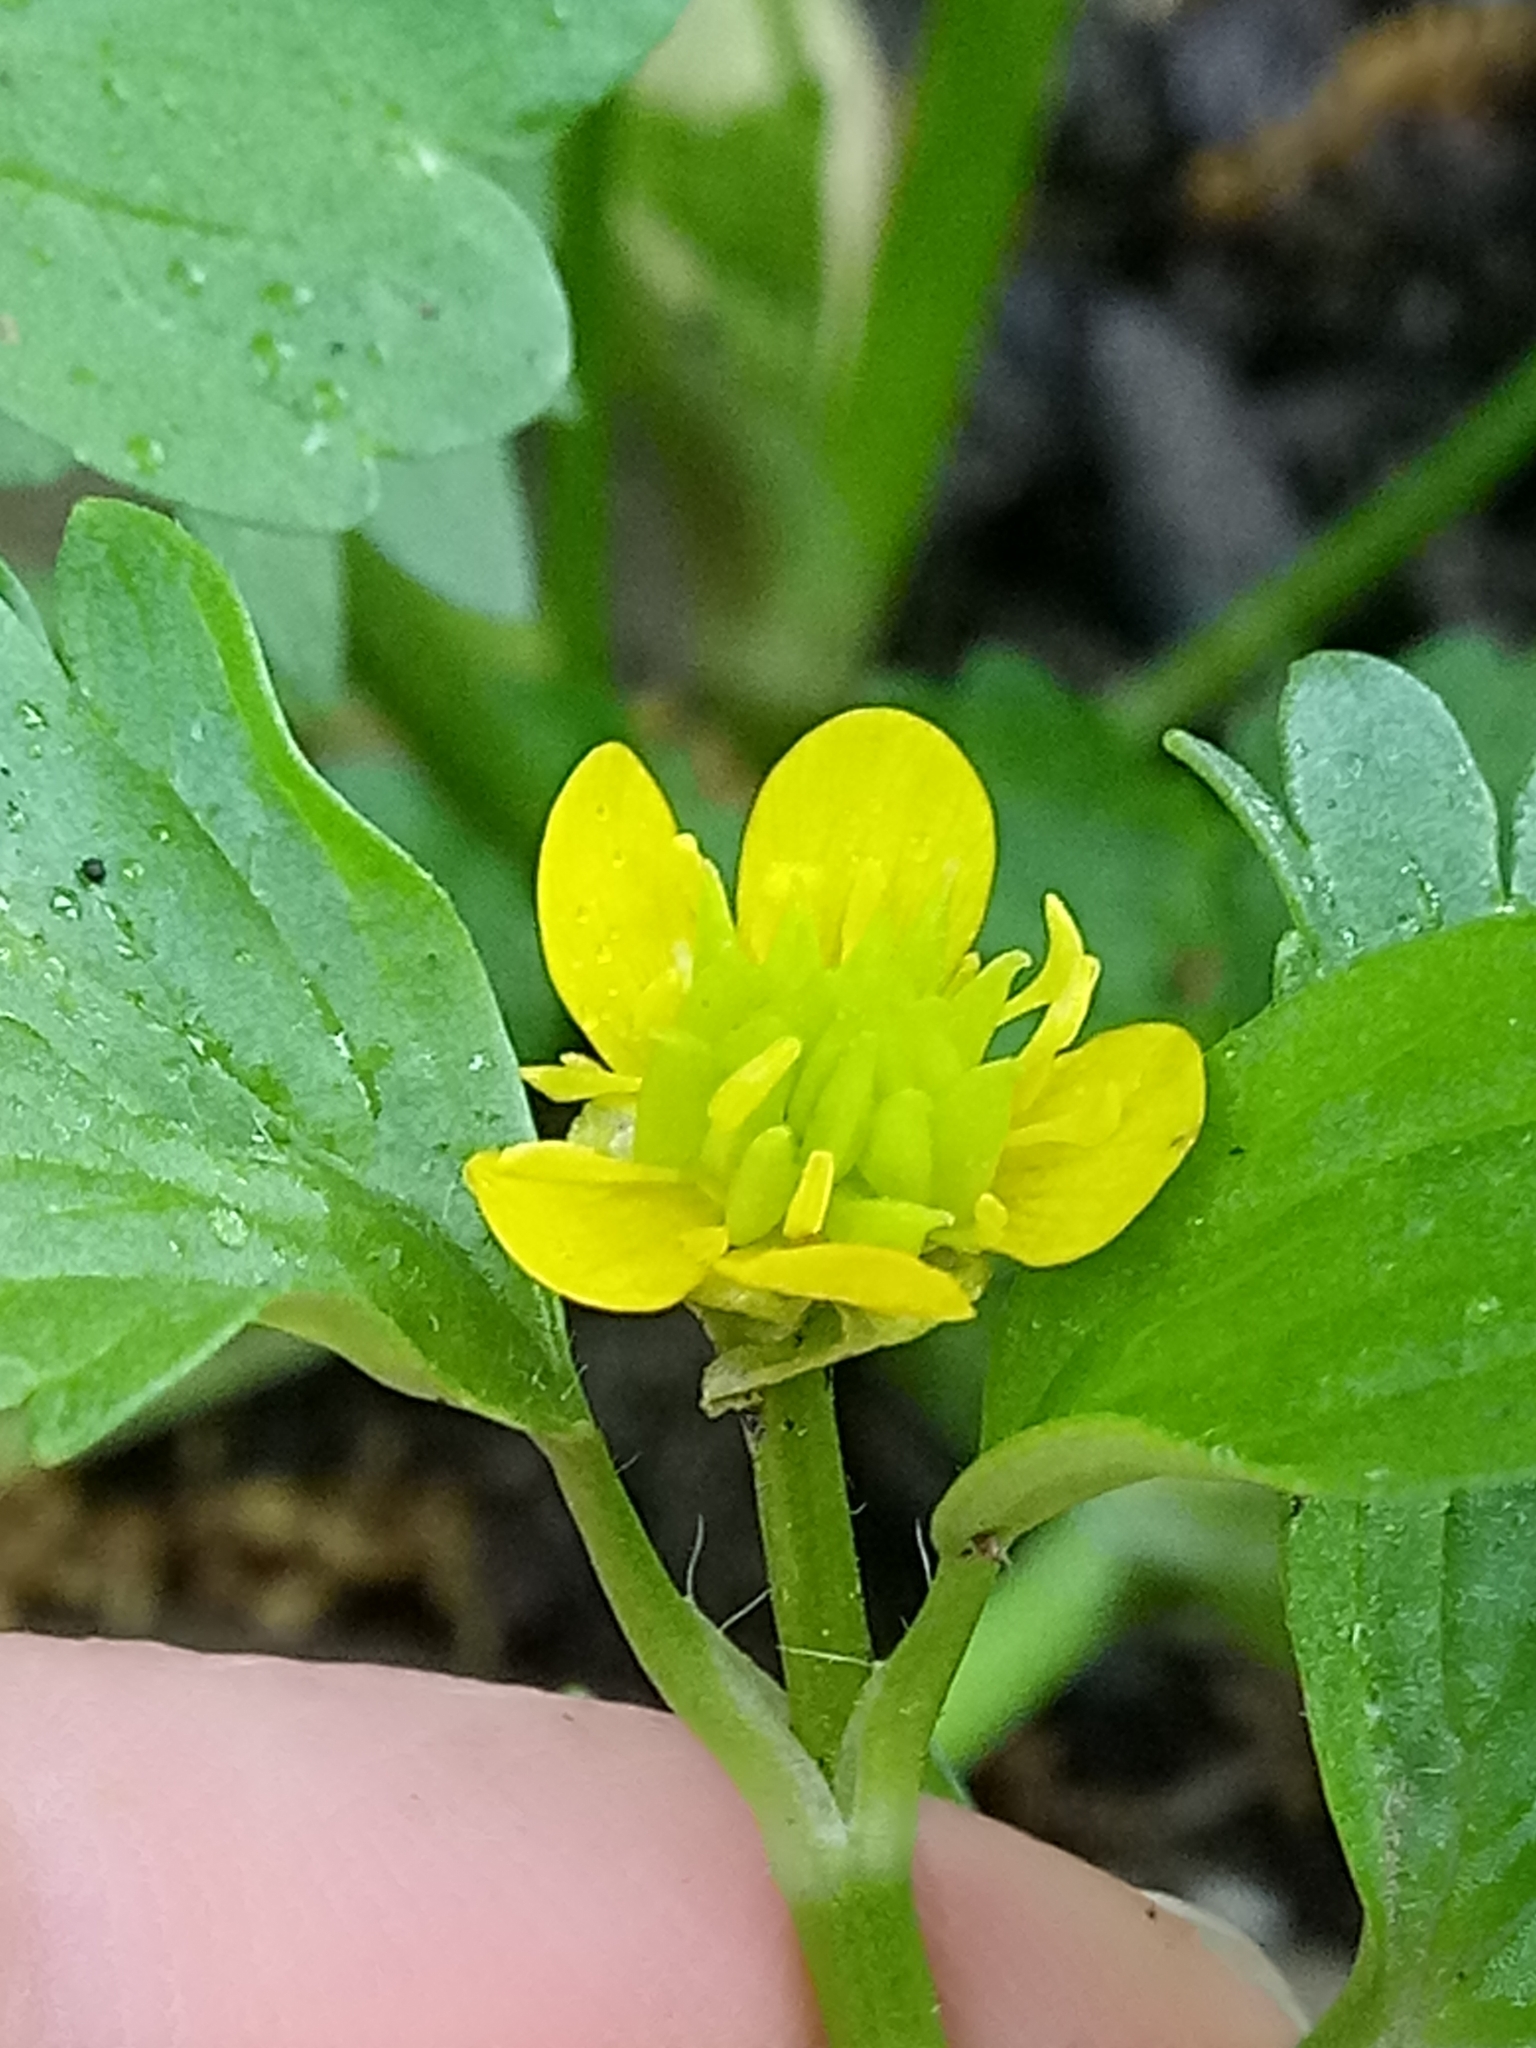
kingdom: Plantae
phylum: Tracheophyta
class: Magnoliopsida
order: Ranunculales
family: Ranunculaceae
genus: Ranunculus
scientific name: Ranunculus muricatus
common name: Rough-fruited buttercup
